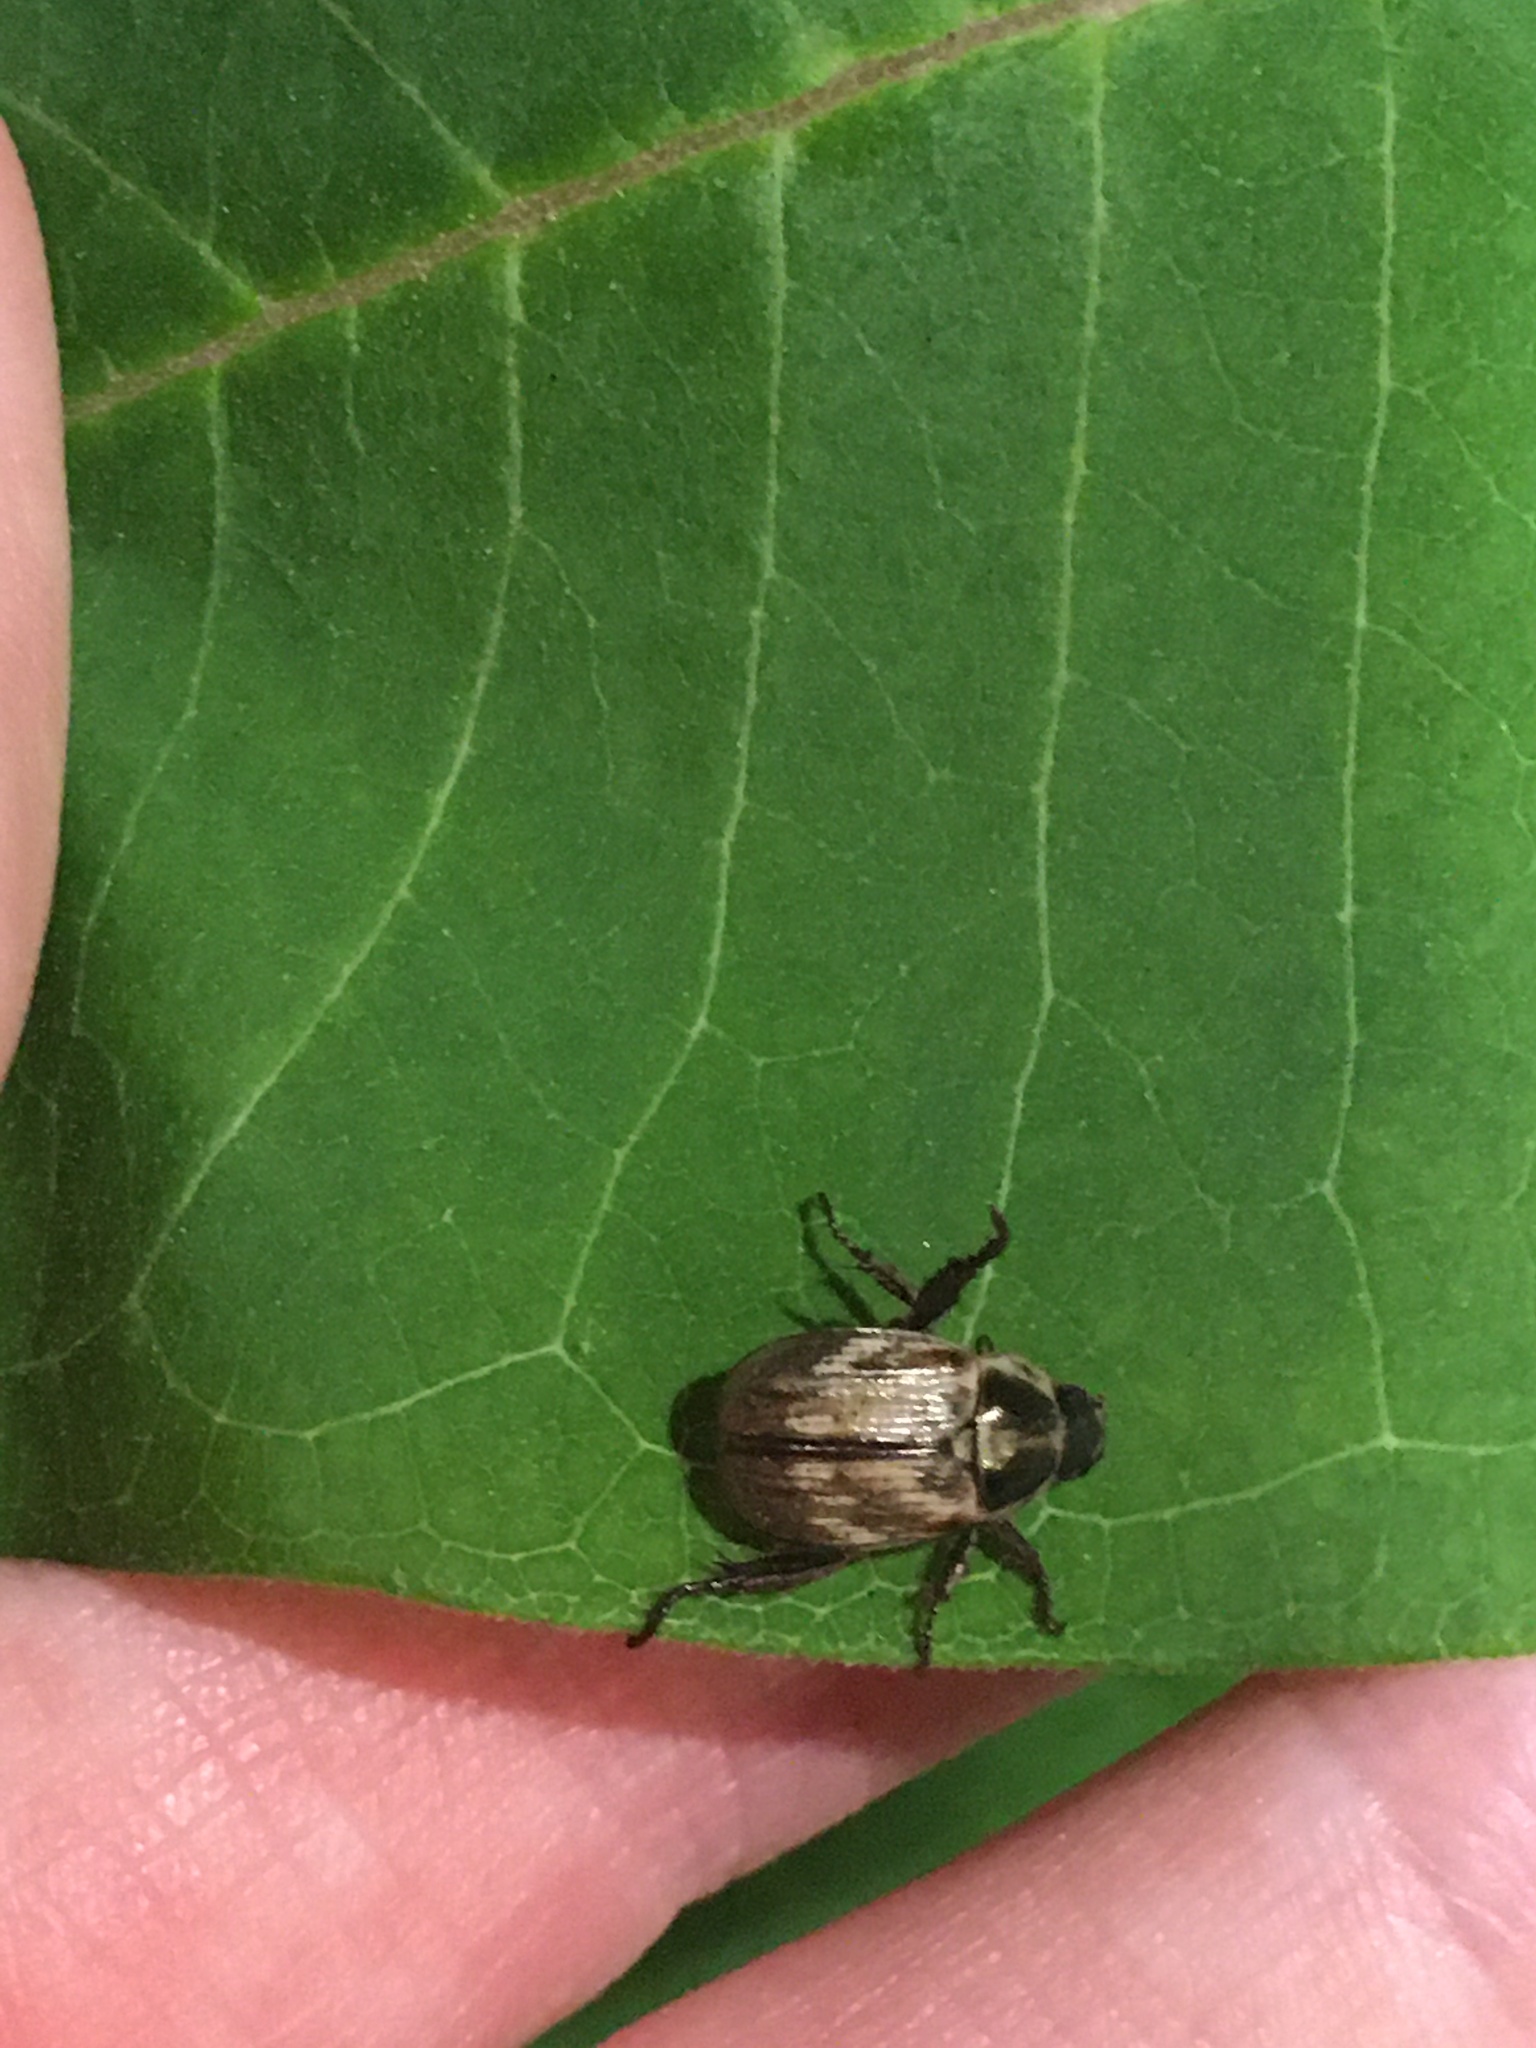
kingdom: Animalia
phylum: Arthropoda
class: Insecta
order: Coleoptera
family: Scarabaeidae
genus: Exomala
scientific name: Exomala orientalis
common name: Oriental beetle
